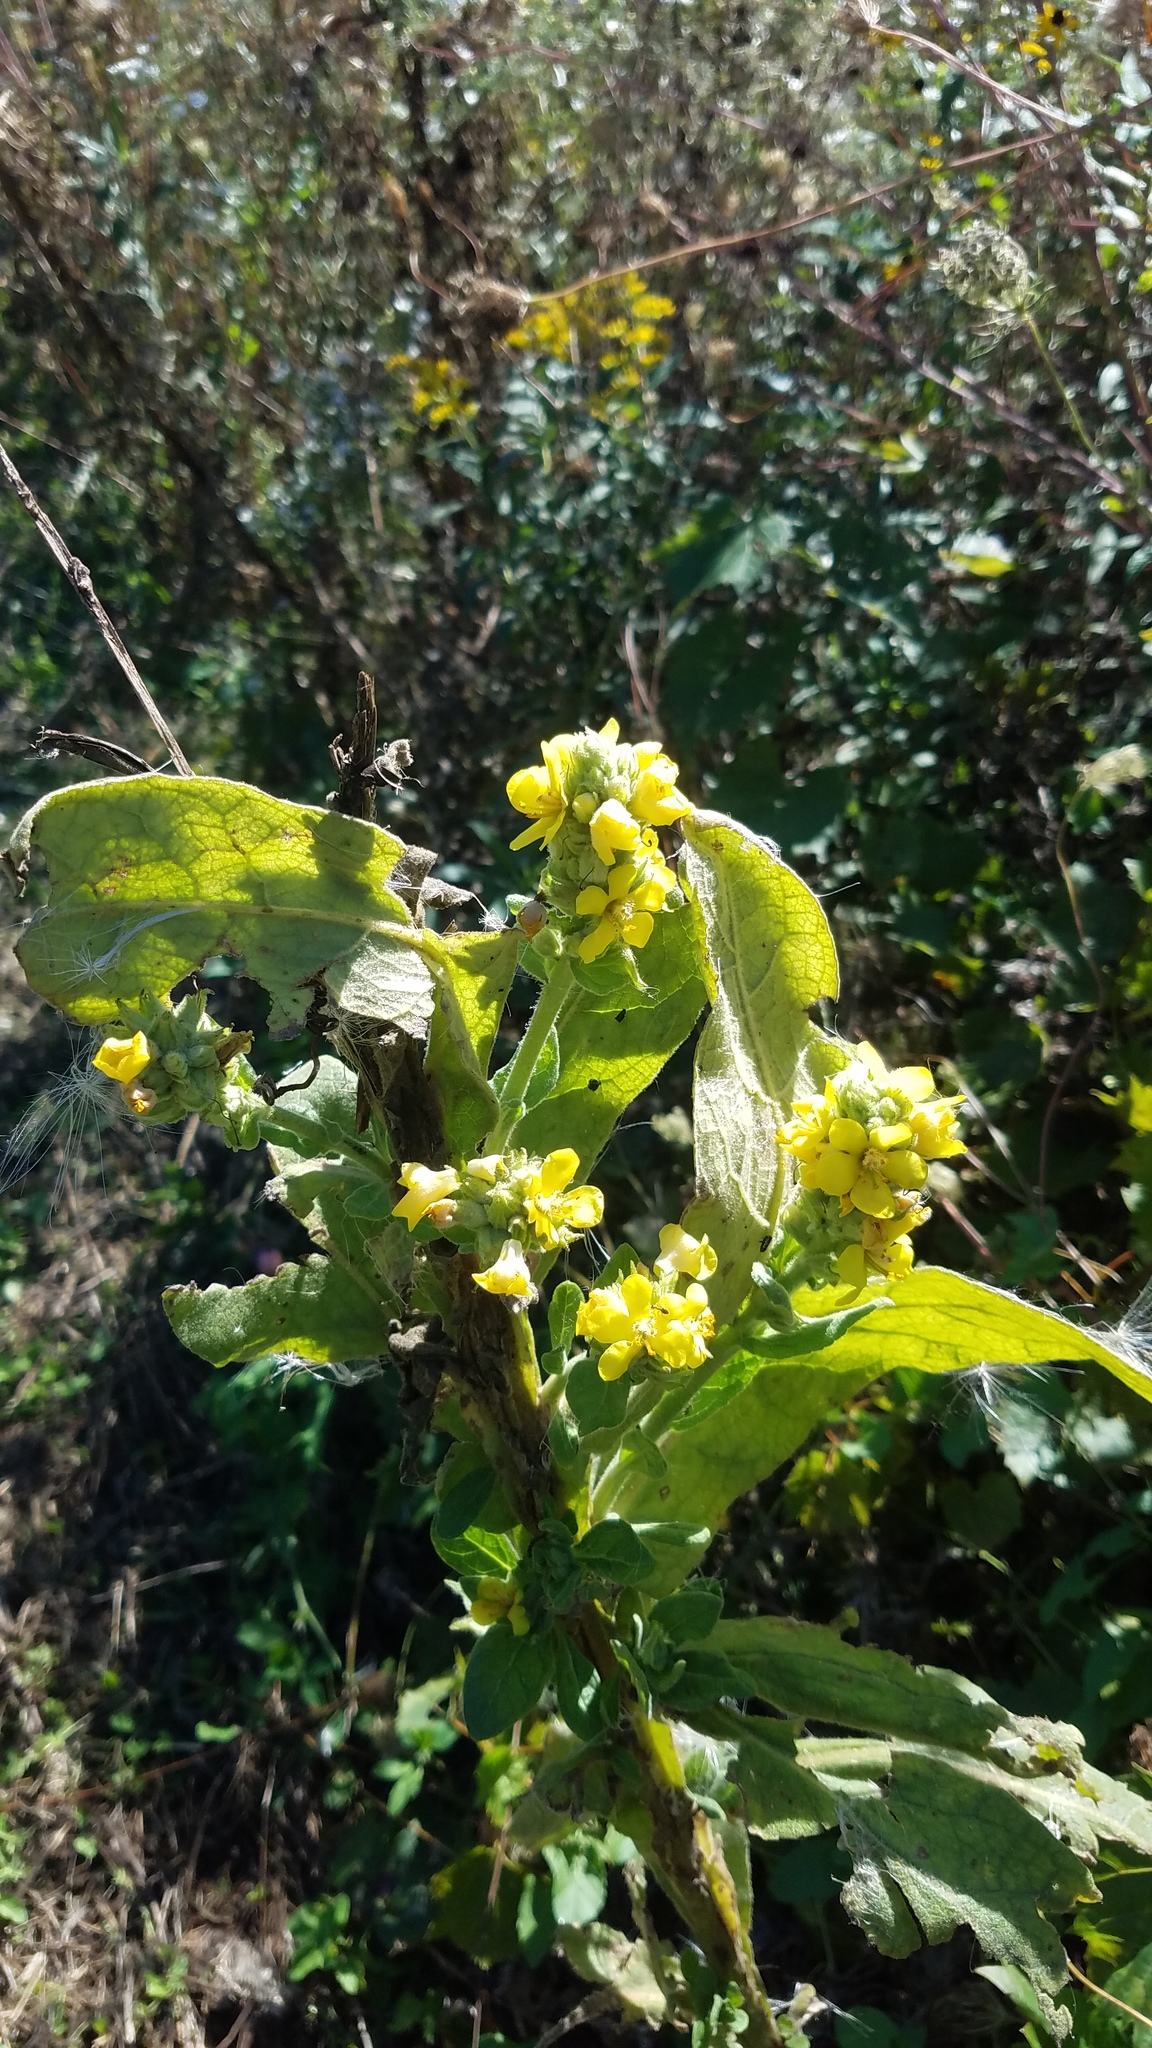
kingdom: Plantae
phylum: Tracheophyta
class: Magnoliopsida
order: Lamiales
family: Scrophulariaceae
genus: Verbascum
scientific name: Verbascum thapsus
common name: Common mullein
